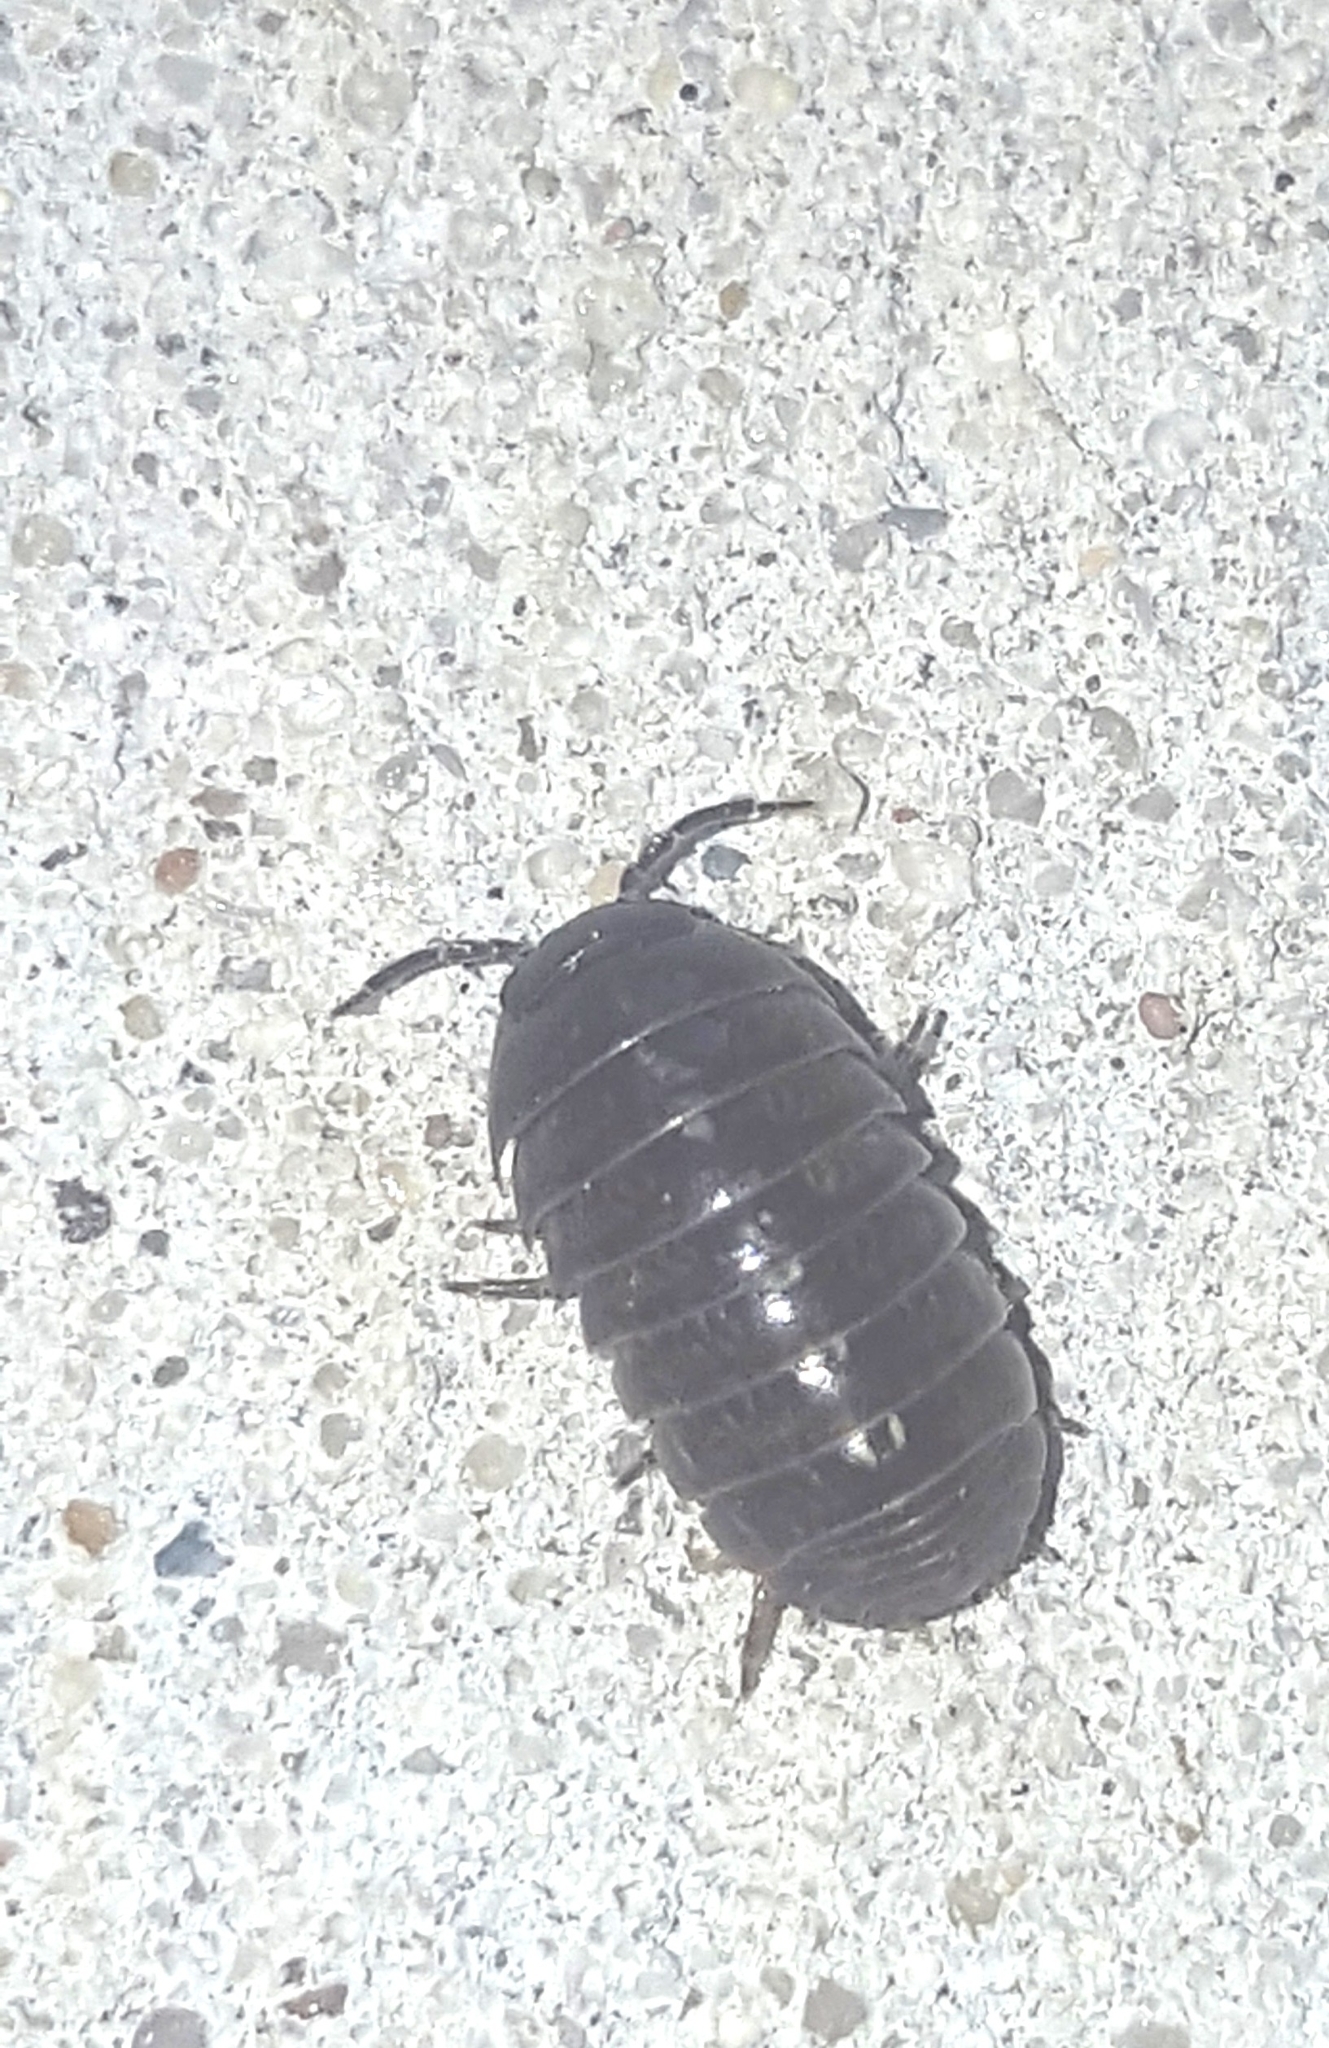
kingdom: Animalia
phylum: Arthropoda
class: Malacostraca
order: Isopoda
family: Armadillidiidae
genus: Armadillidium
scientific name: Armadillidium vulgare
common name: Common pill woodlouse
